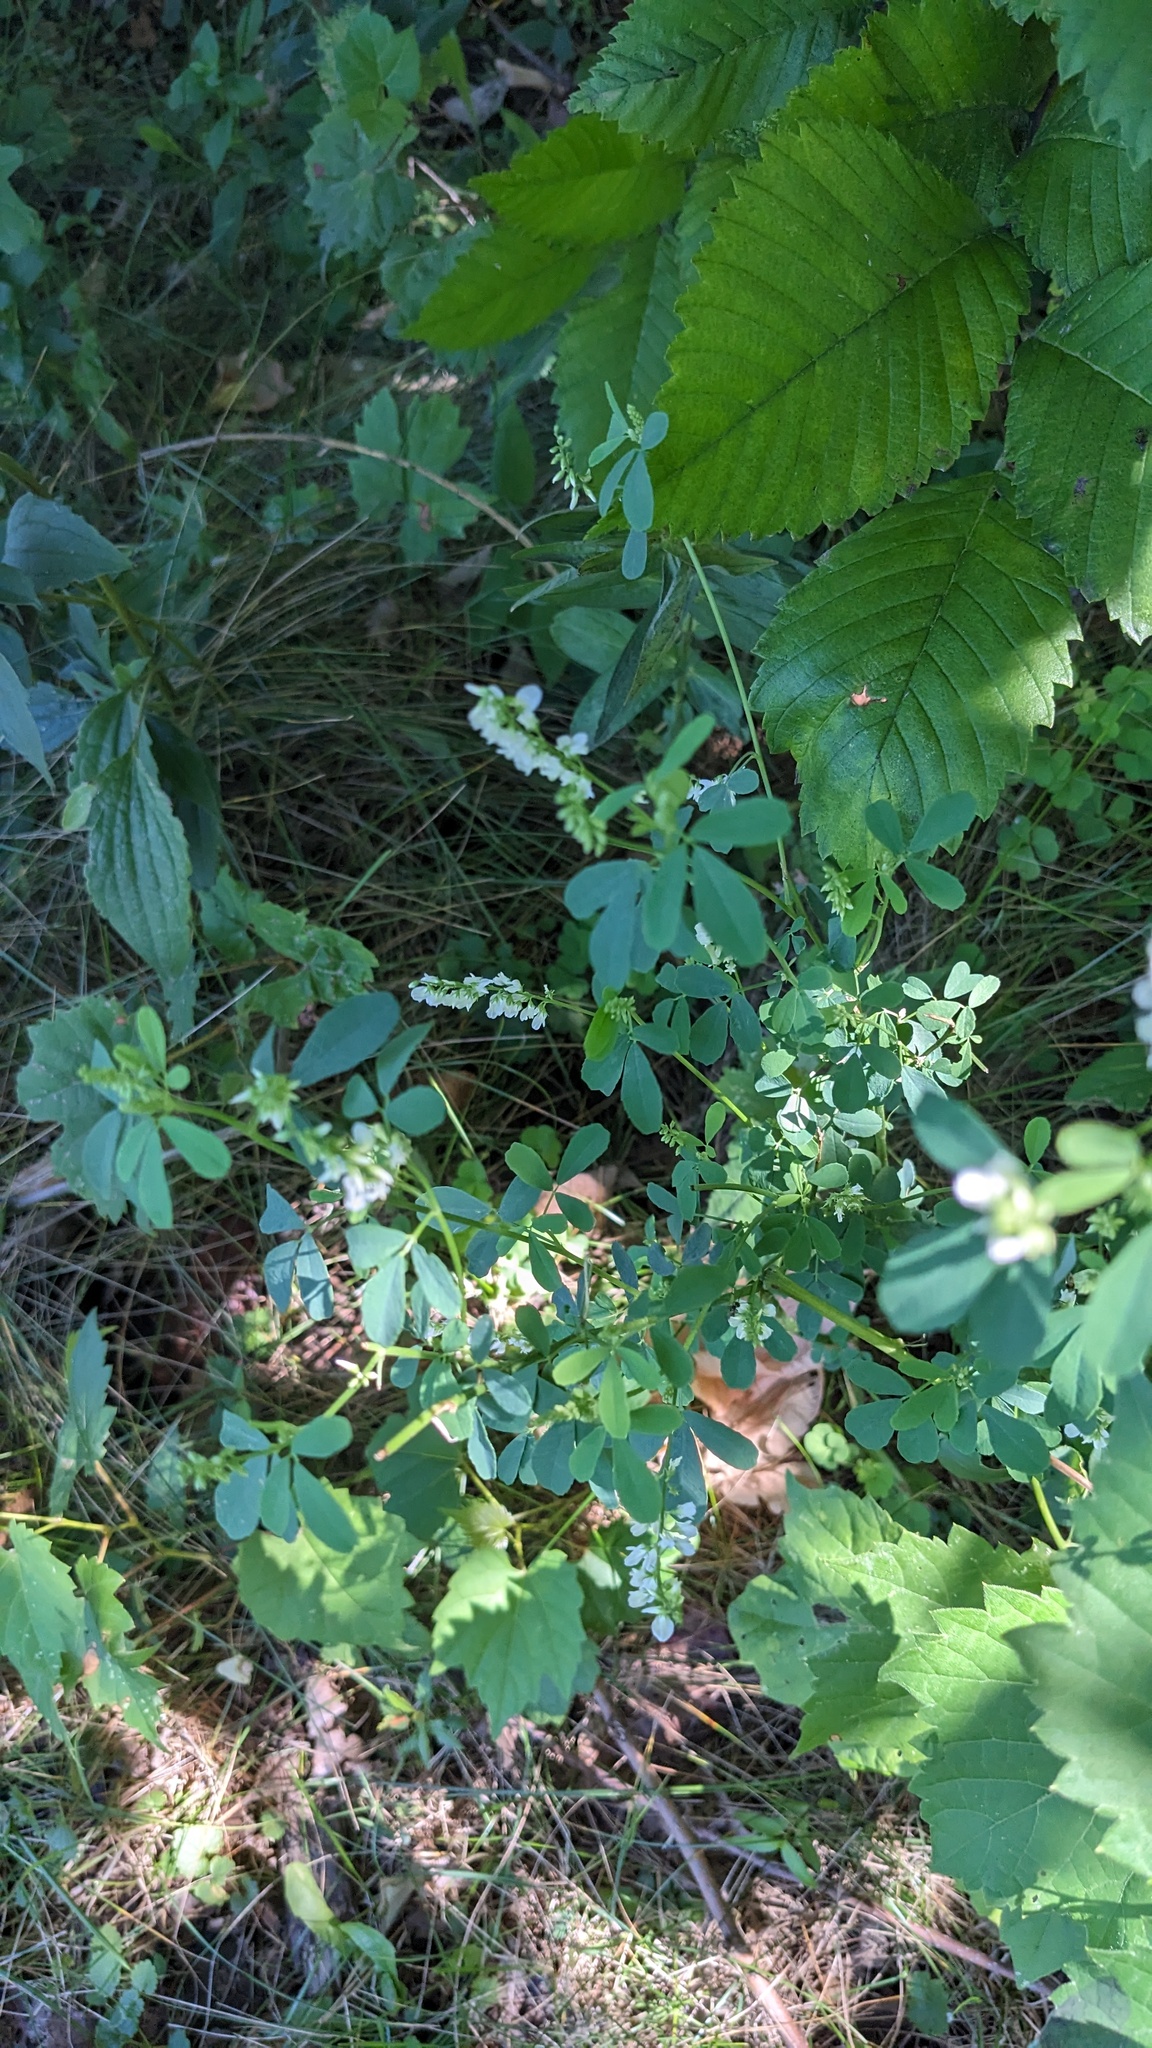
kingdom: Plantae
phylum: Tracheophyta
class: Magnoliopsida
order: Fabales
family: Fabaceae
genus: Melilotus
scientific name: Melilotus albus
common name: White melilot
